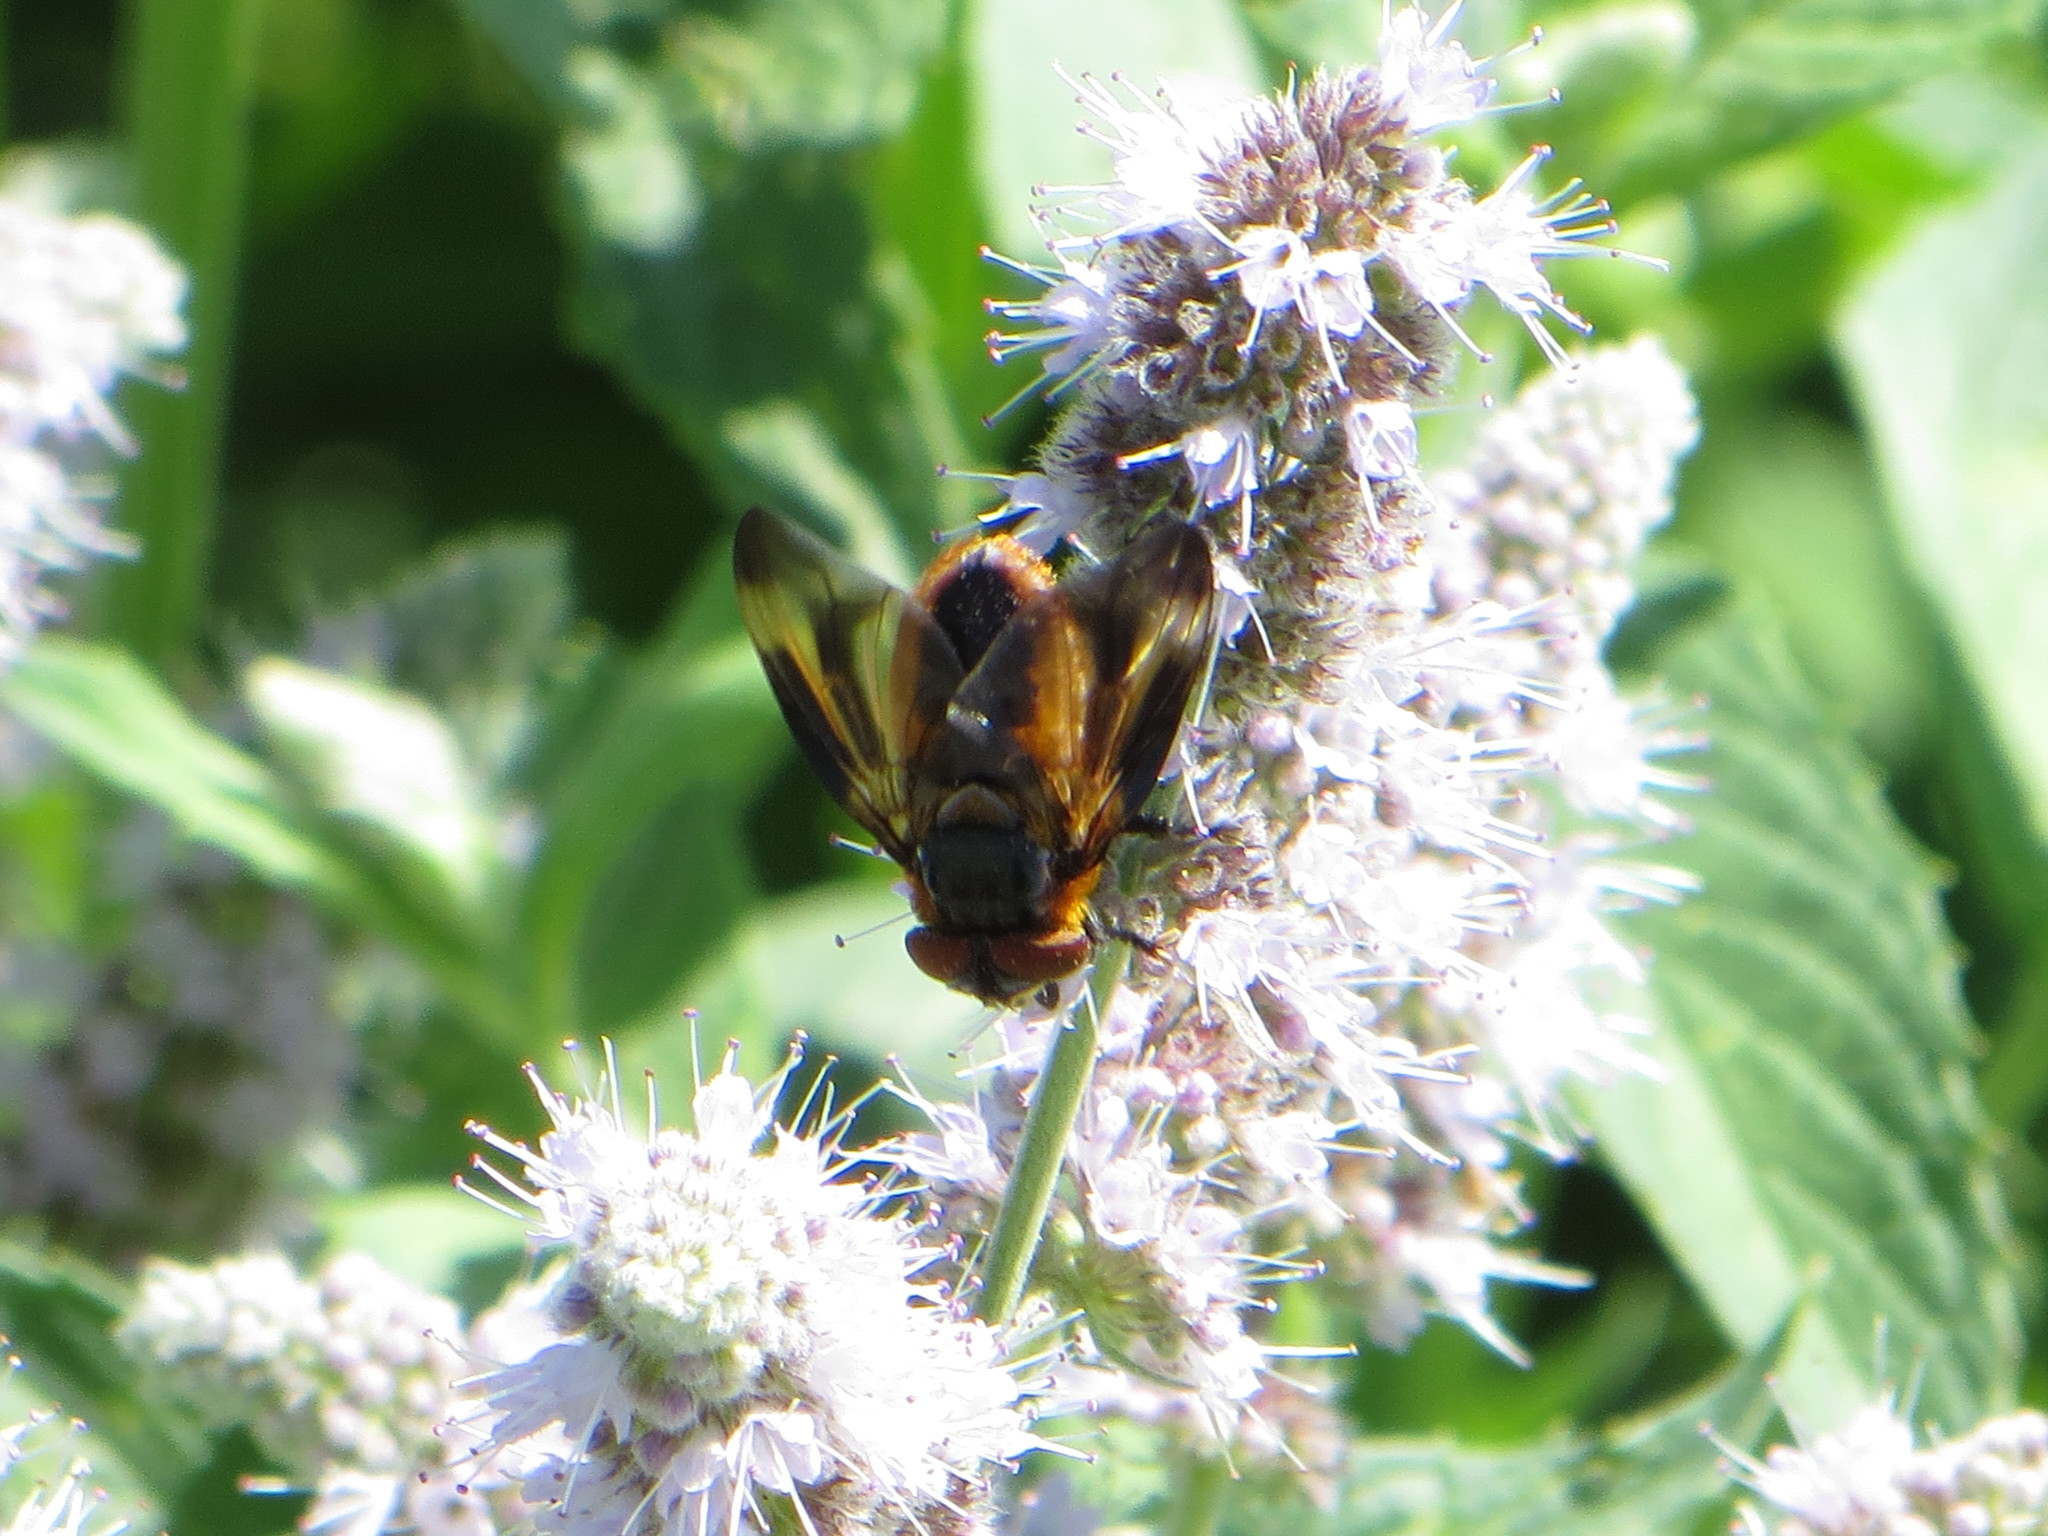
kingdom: Animalia
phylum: Arthropoda
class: Insecta
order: Diptera
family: Tachinidae
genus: Phasia
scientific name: Phasia hemiptera
